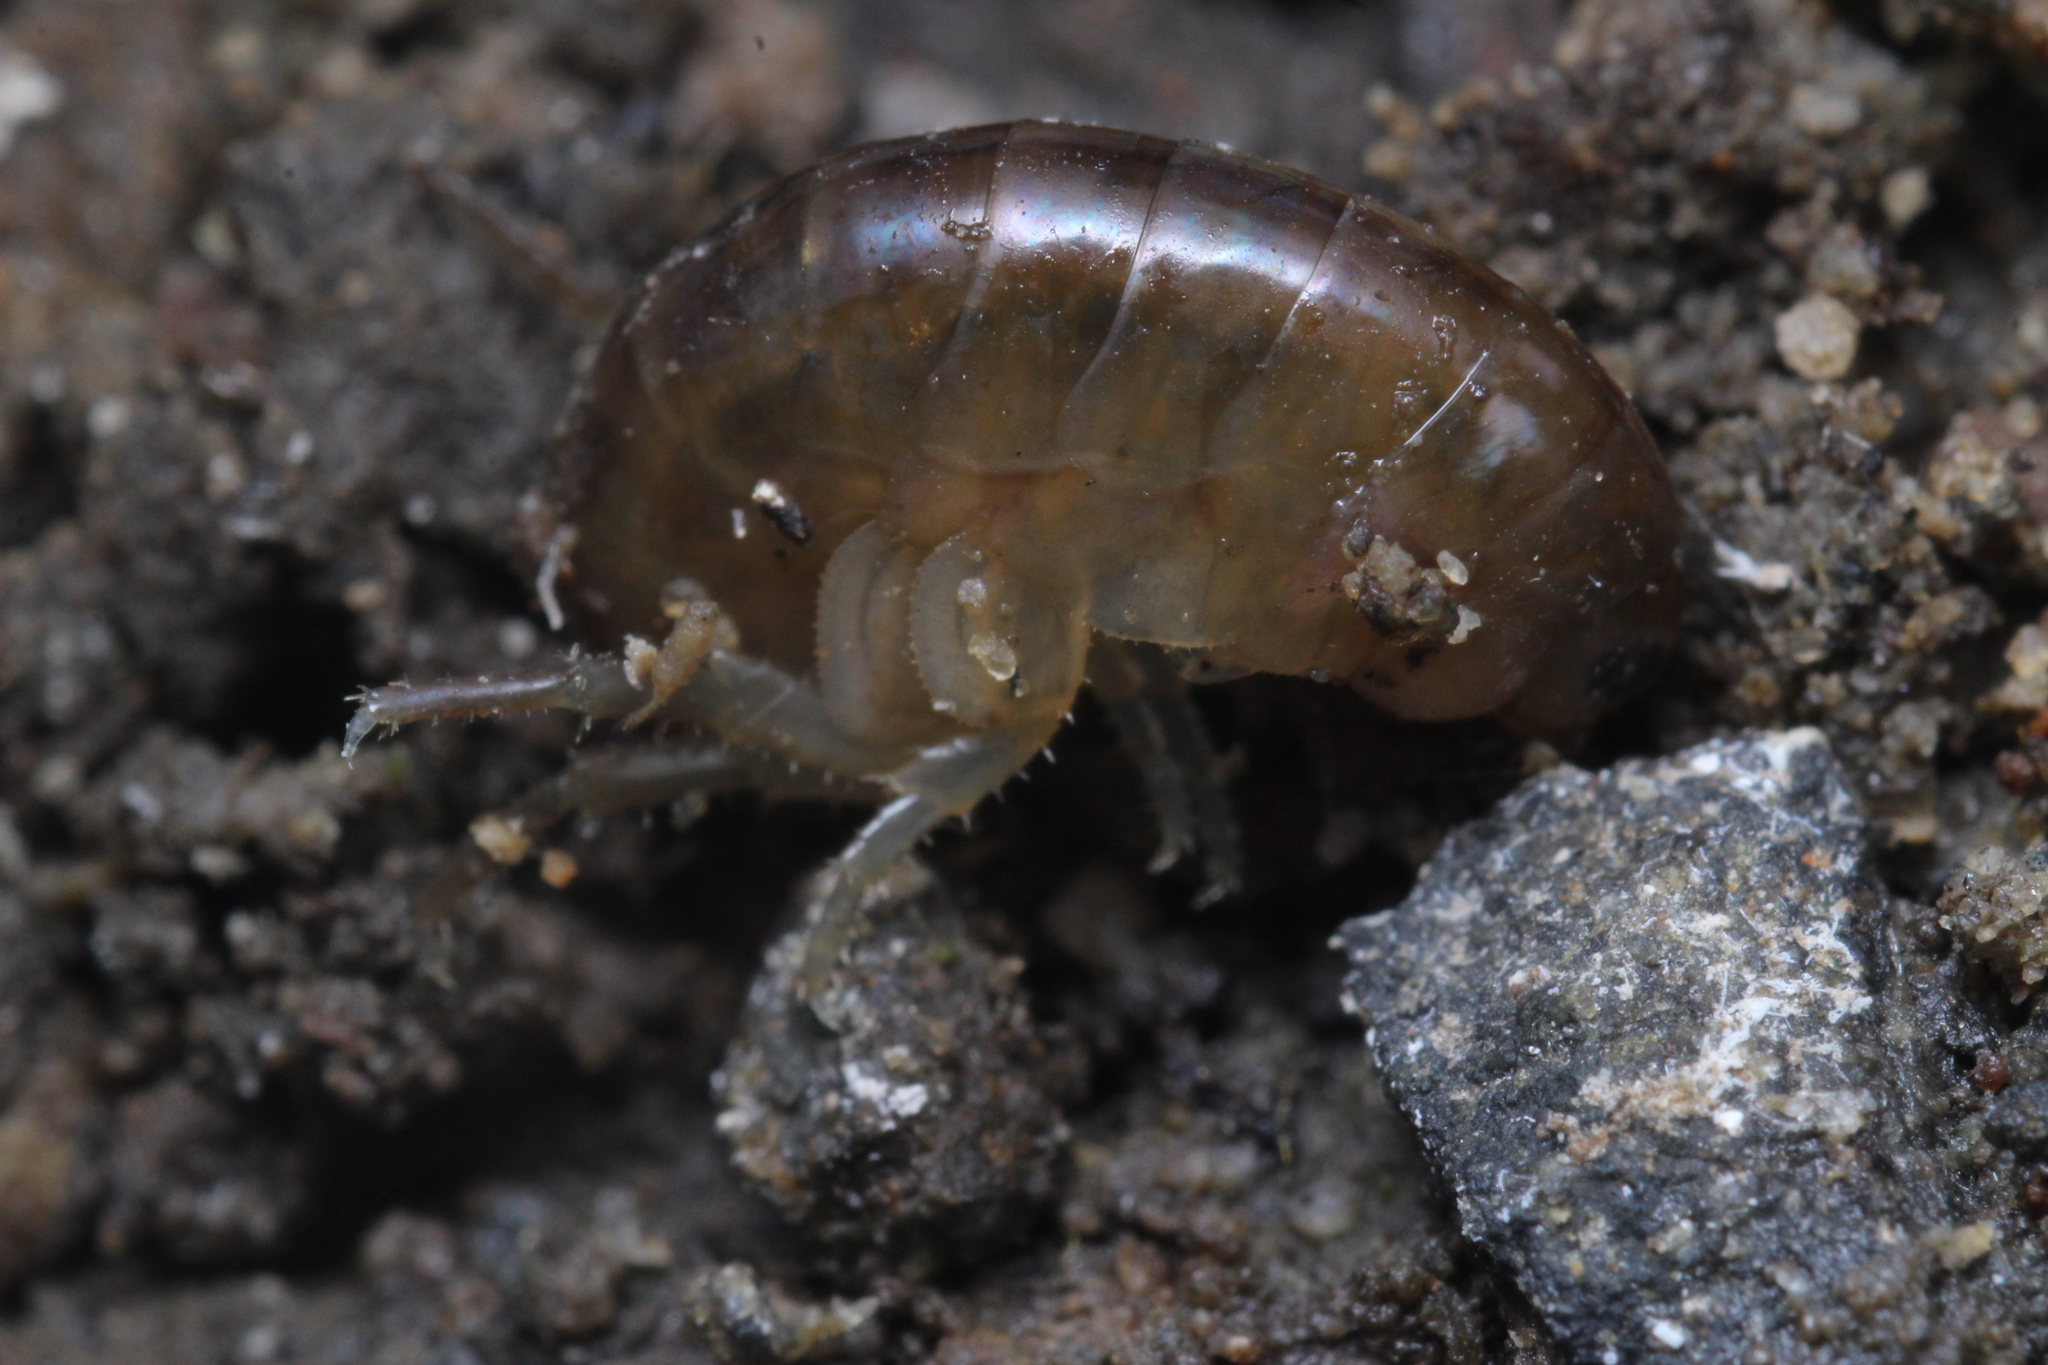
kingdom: Animalia
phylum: Arthropoda
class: Malacostraca
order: Amphipoda
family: Arcitalitridae
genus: Arcitalitrus
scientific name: Arcitalitrus sylvaticus
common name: Gammarid amphipod
